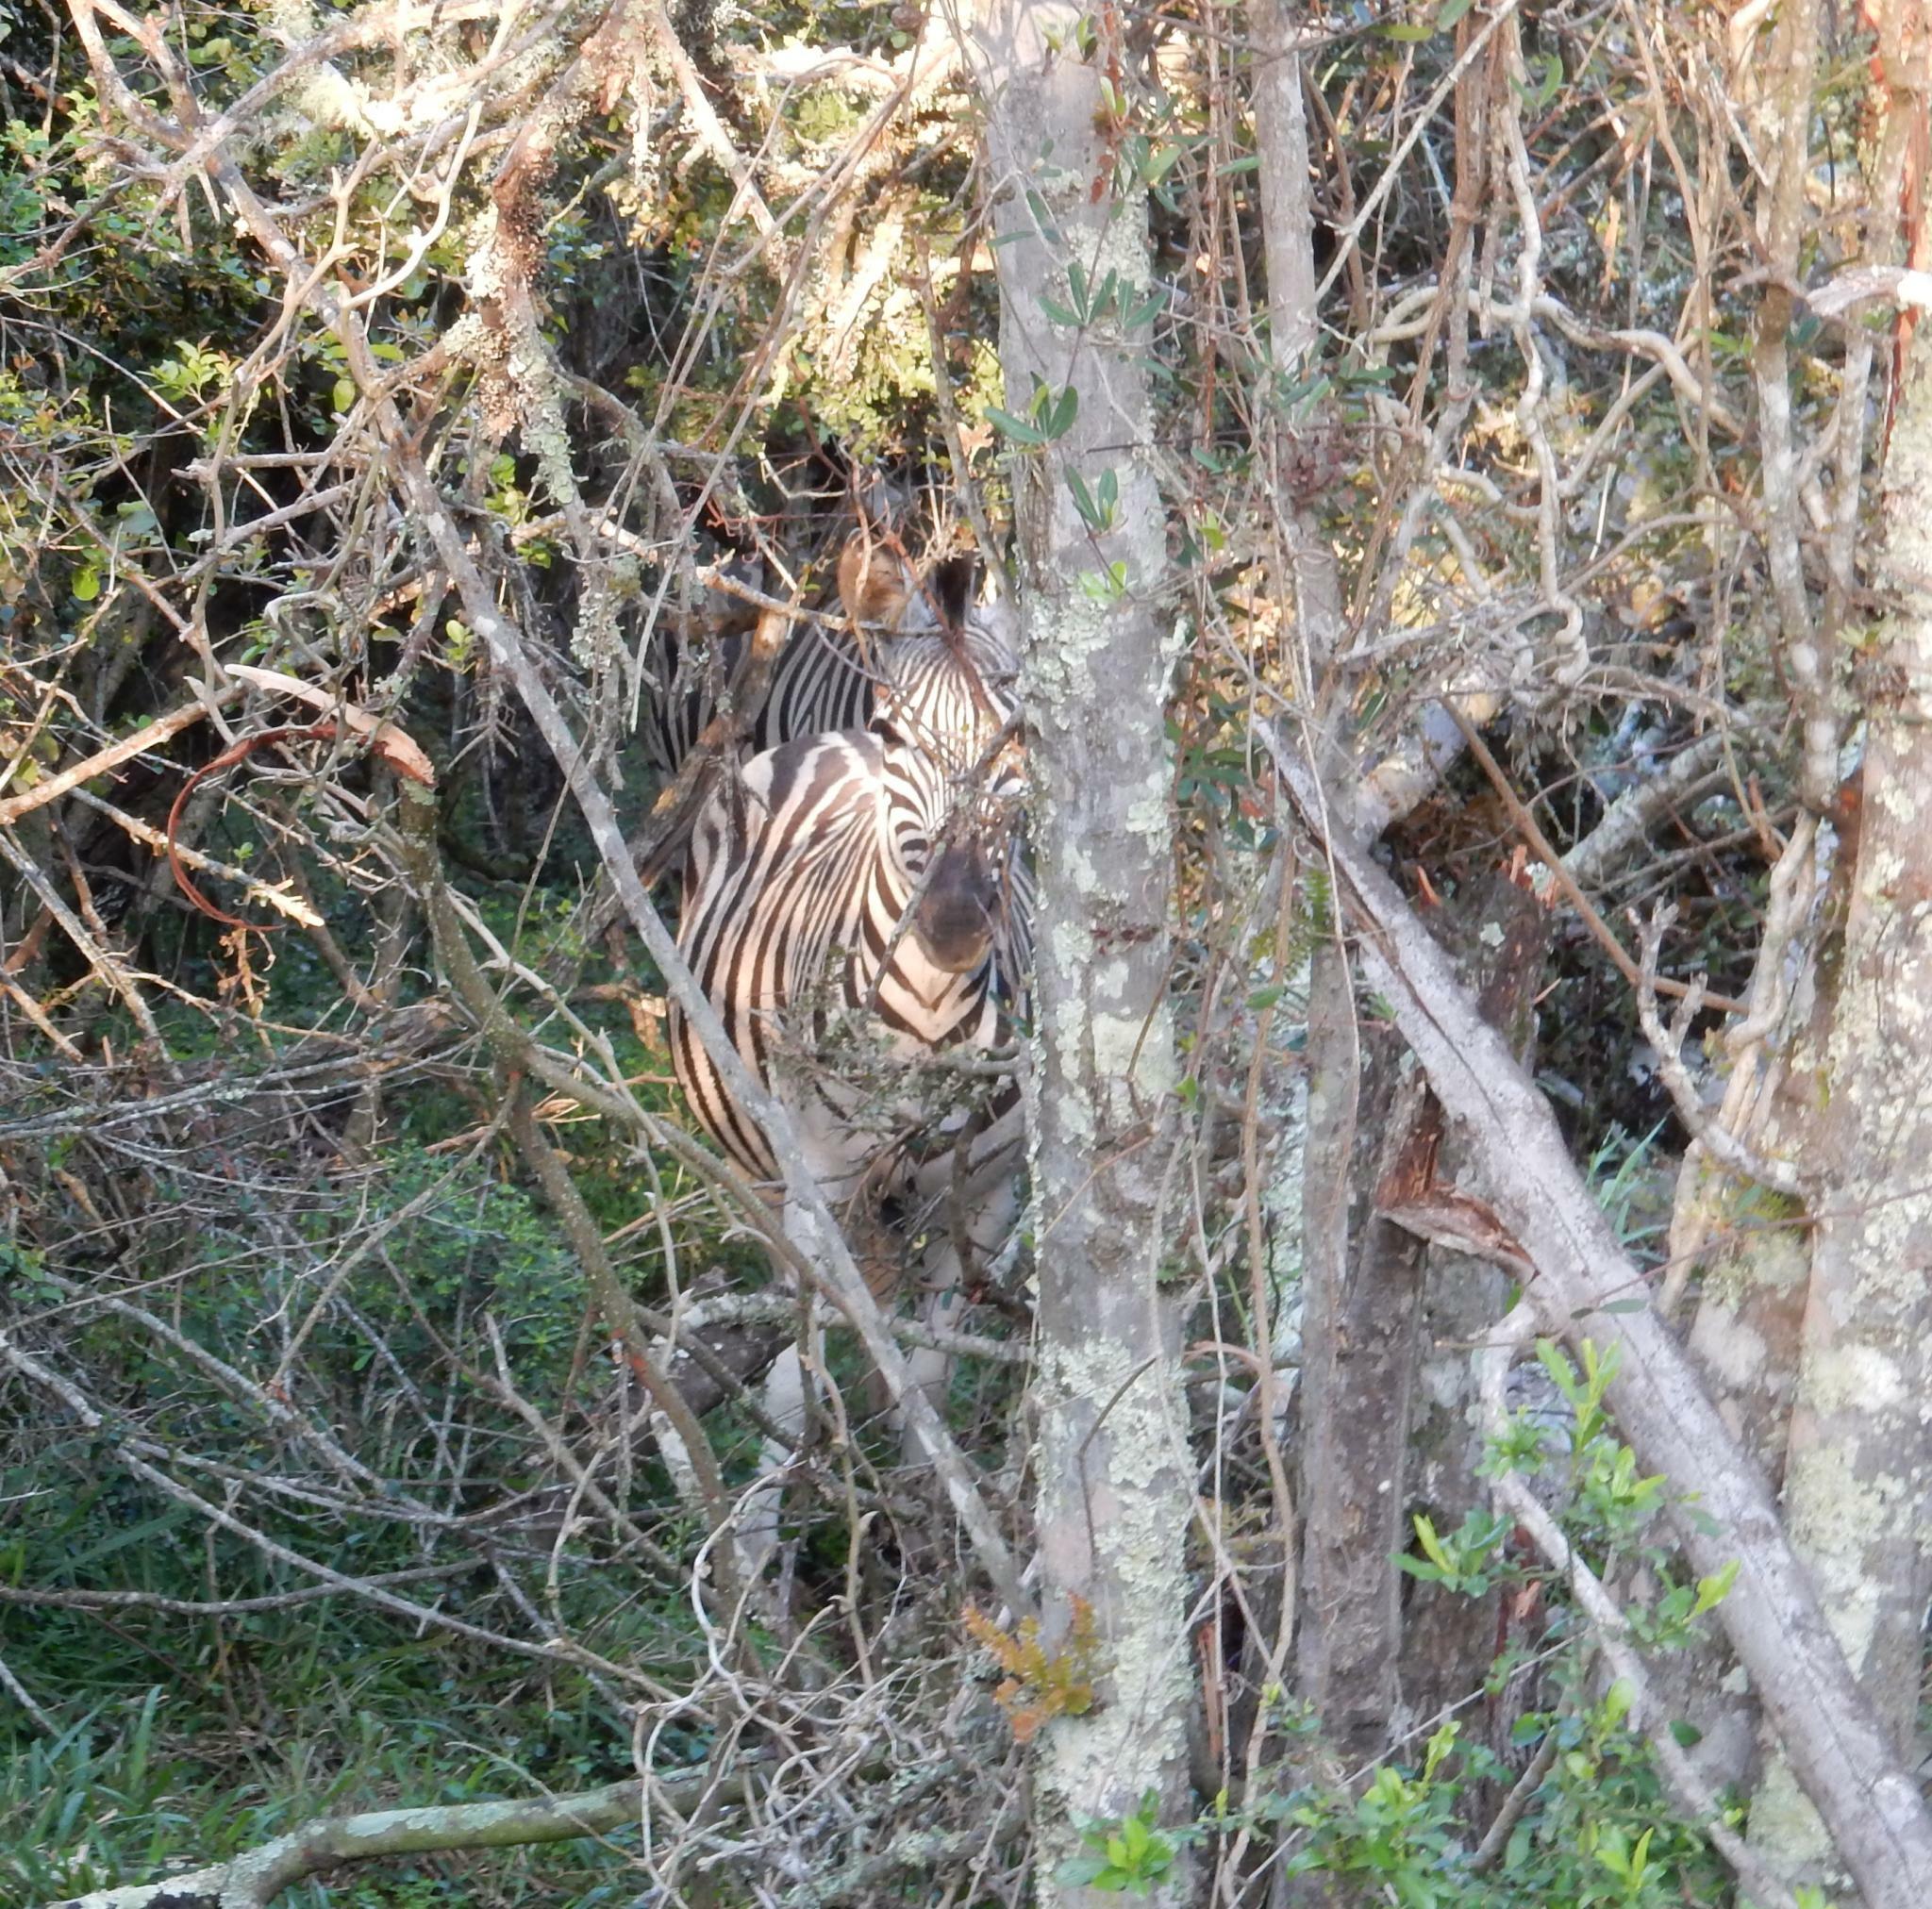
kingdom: Animalia
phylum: Chordata
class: Mammalia
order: Perissodactyla
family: Equidae
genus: Equus
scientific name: Equus quagga
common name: Plains zebra
